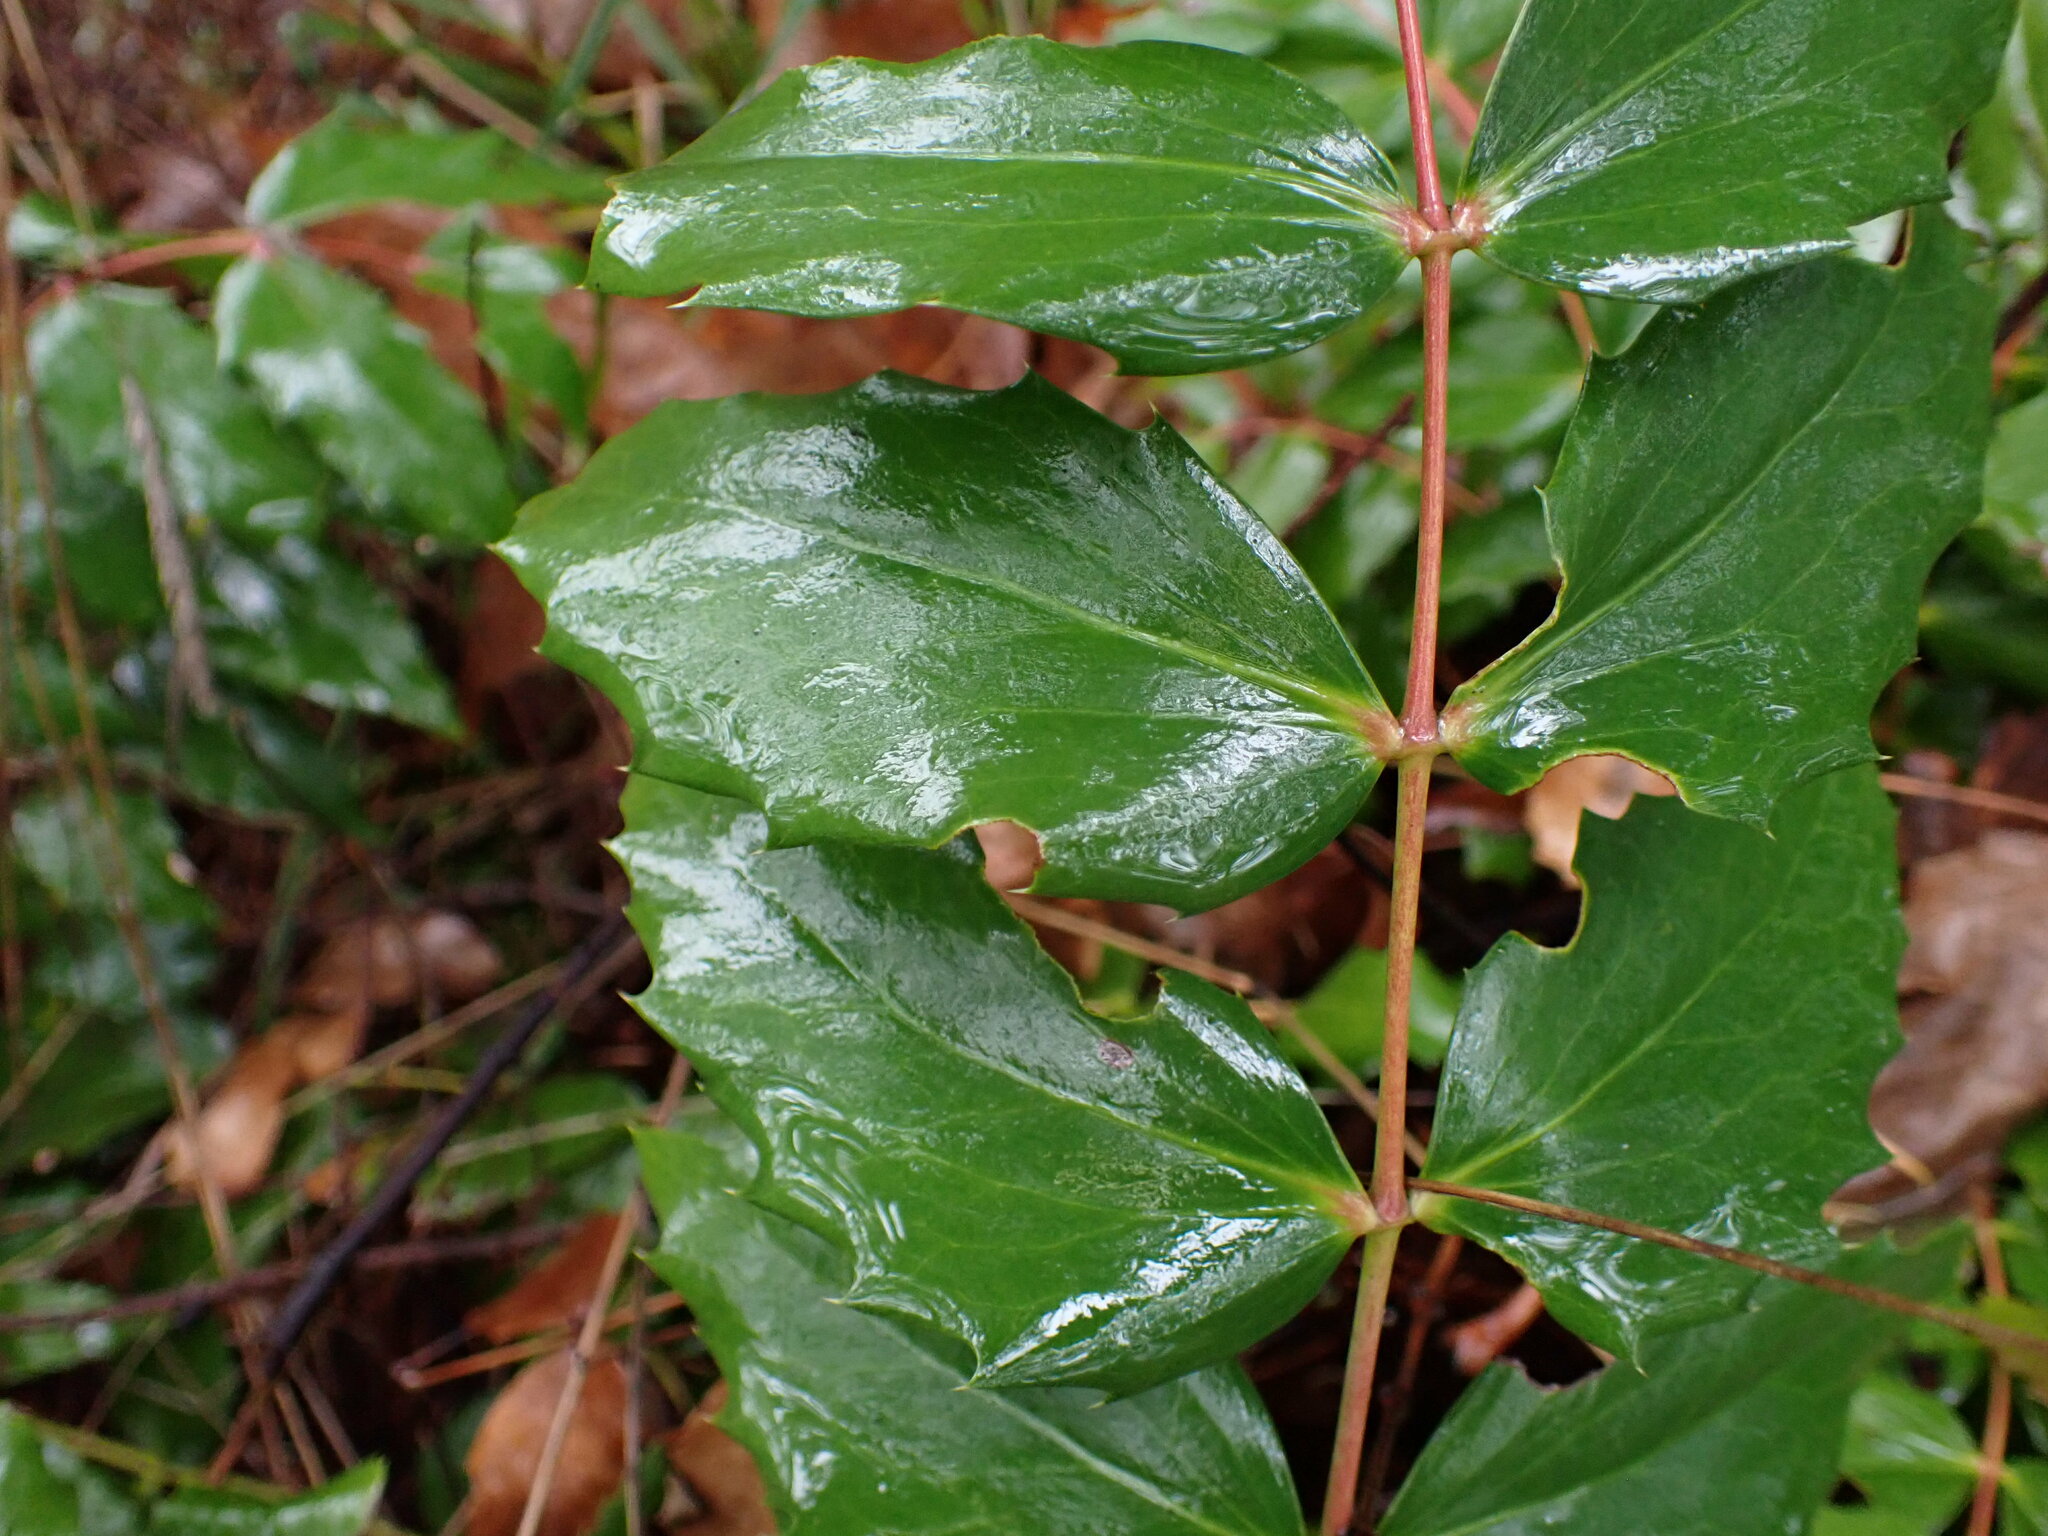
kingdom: Plantae
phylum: Tracheophyta
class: Magnoliopsida
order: Ranunculales
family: Berberidaceae
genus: Mahonia
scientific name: Mahonia nervosa
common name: Cascade oregon-grape
